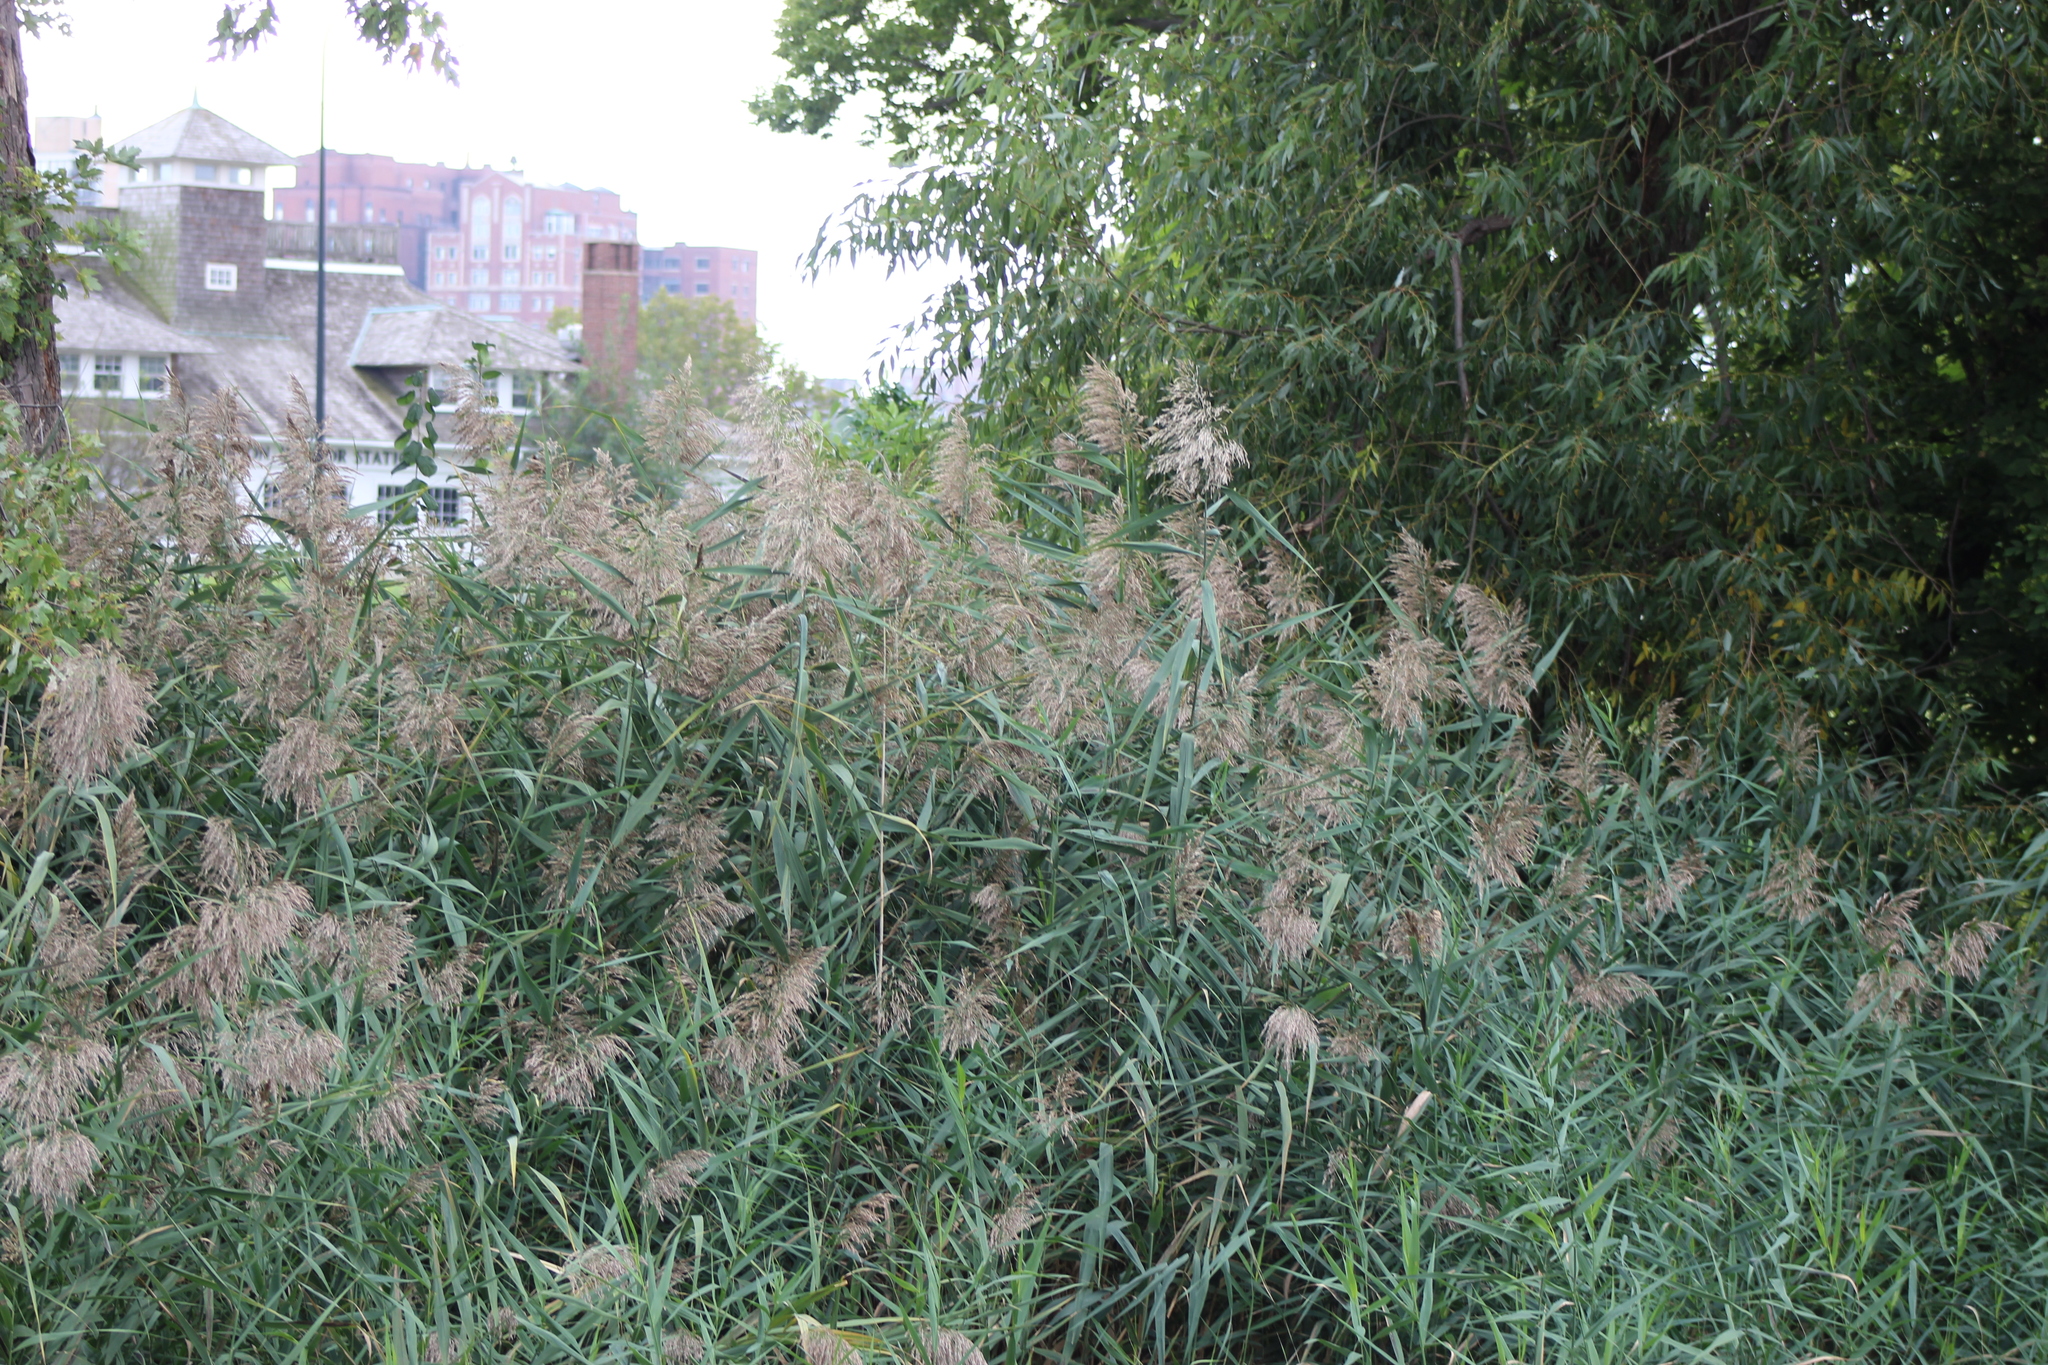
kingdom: Plantae
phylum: Tracheophyta
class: Liliopsida
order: Poales
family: Poaceae
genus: Phragmites
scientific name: Phragmites australis
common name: Common reed
